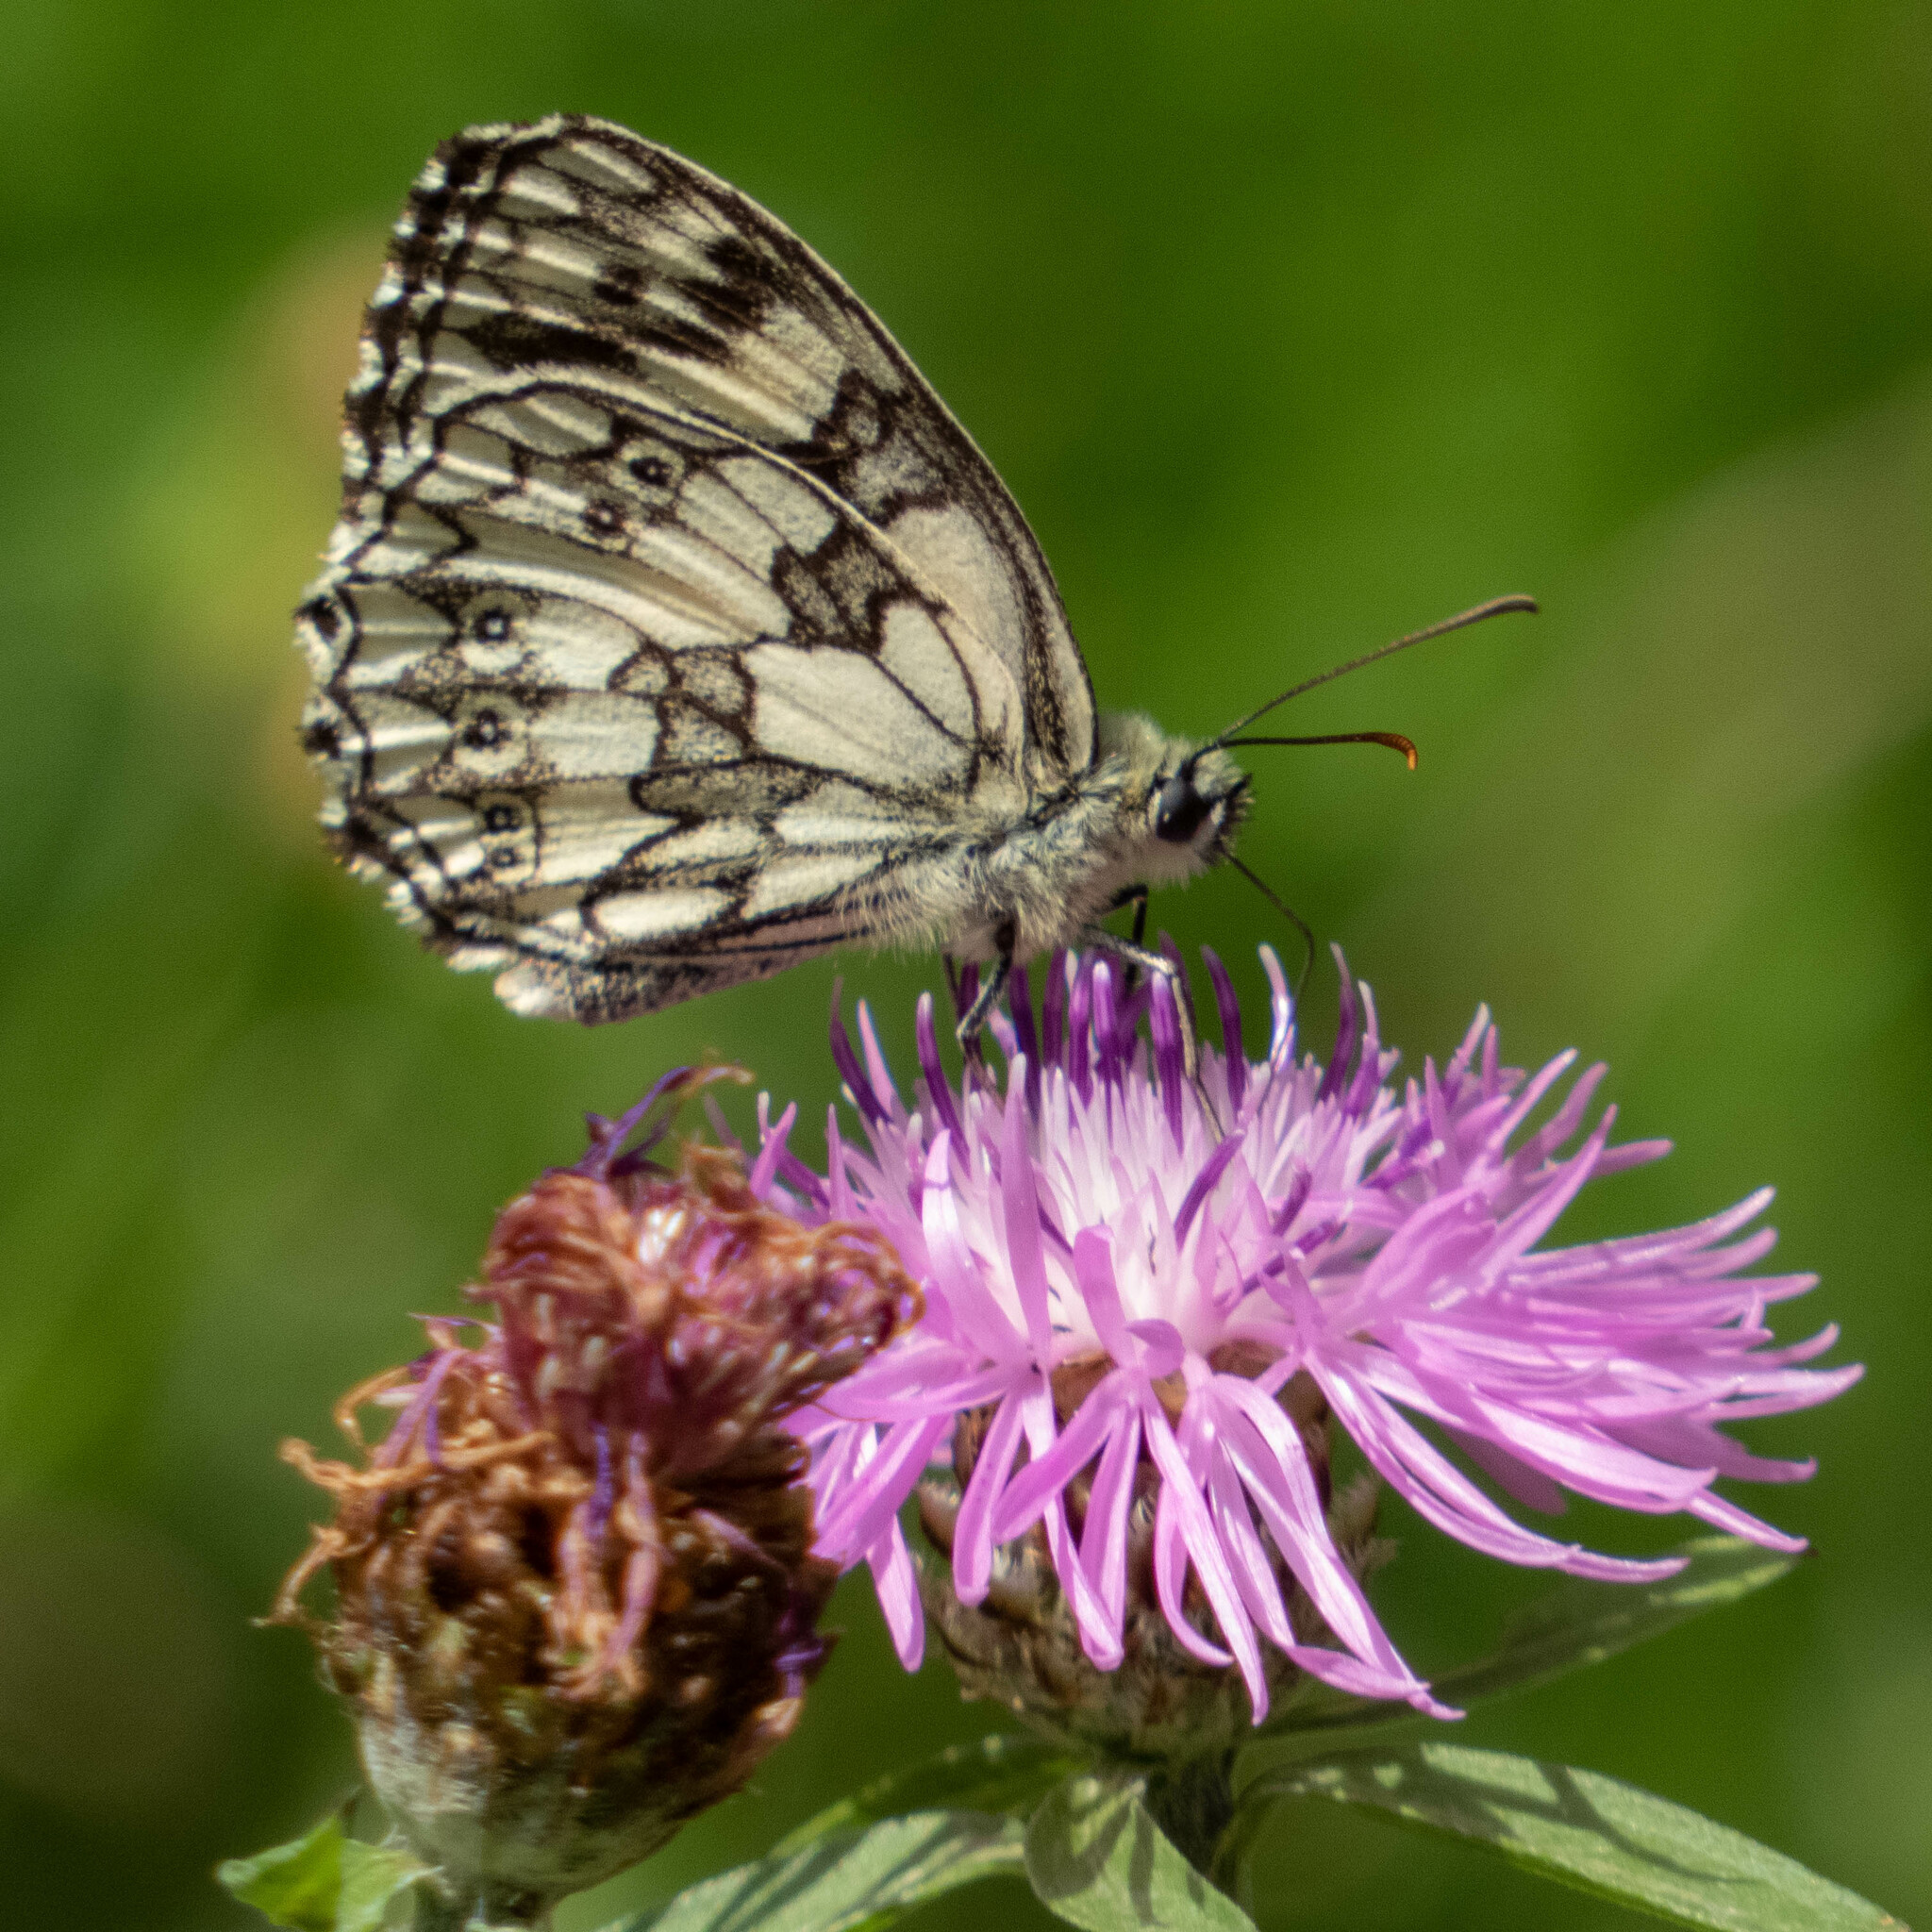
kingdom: Animalia
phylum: Arthropoda
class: Insecta
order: Lepidoptera
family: Nymphalidae
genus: Melanargia
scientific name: Melanargia galathea
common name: Marbled white
